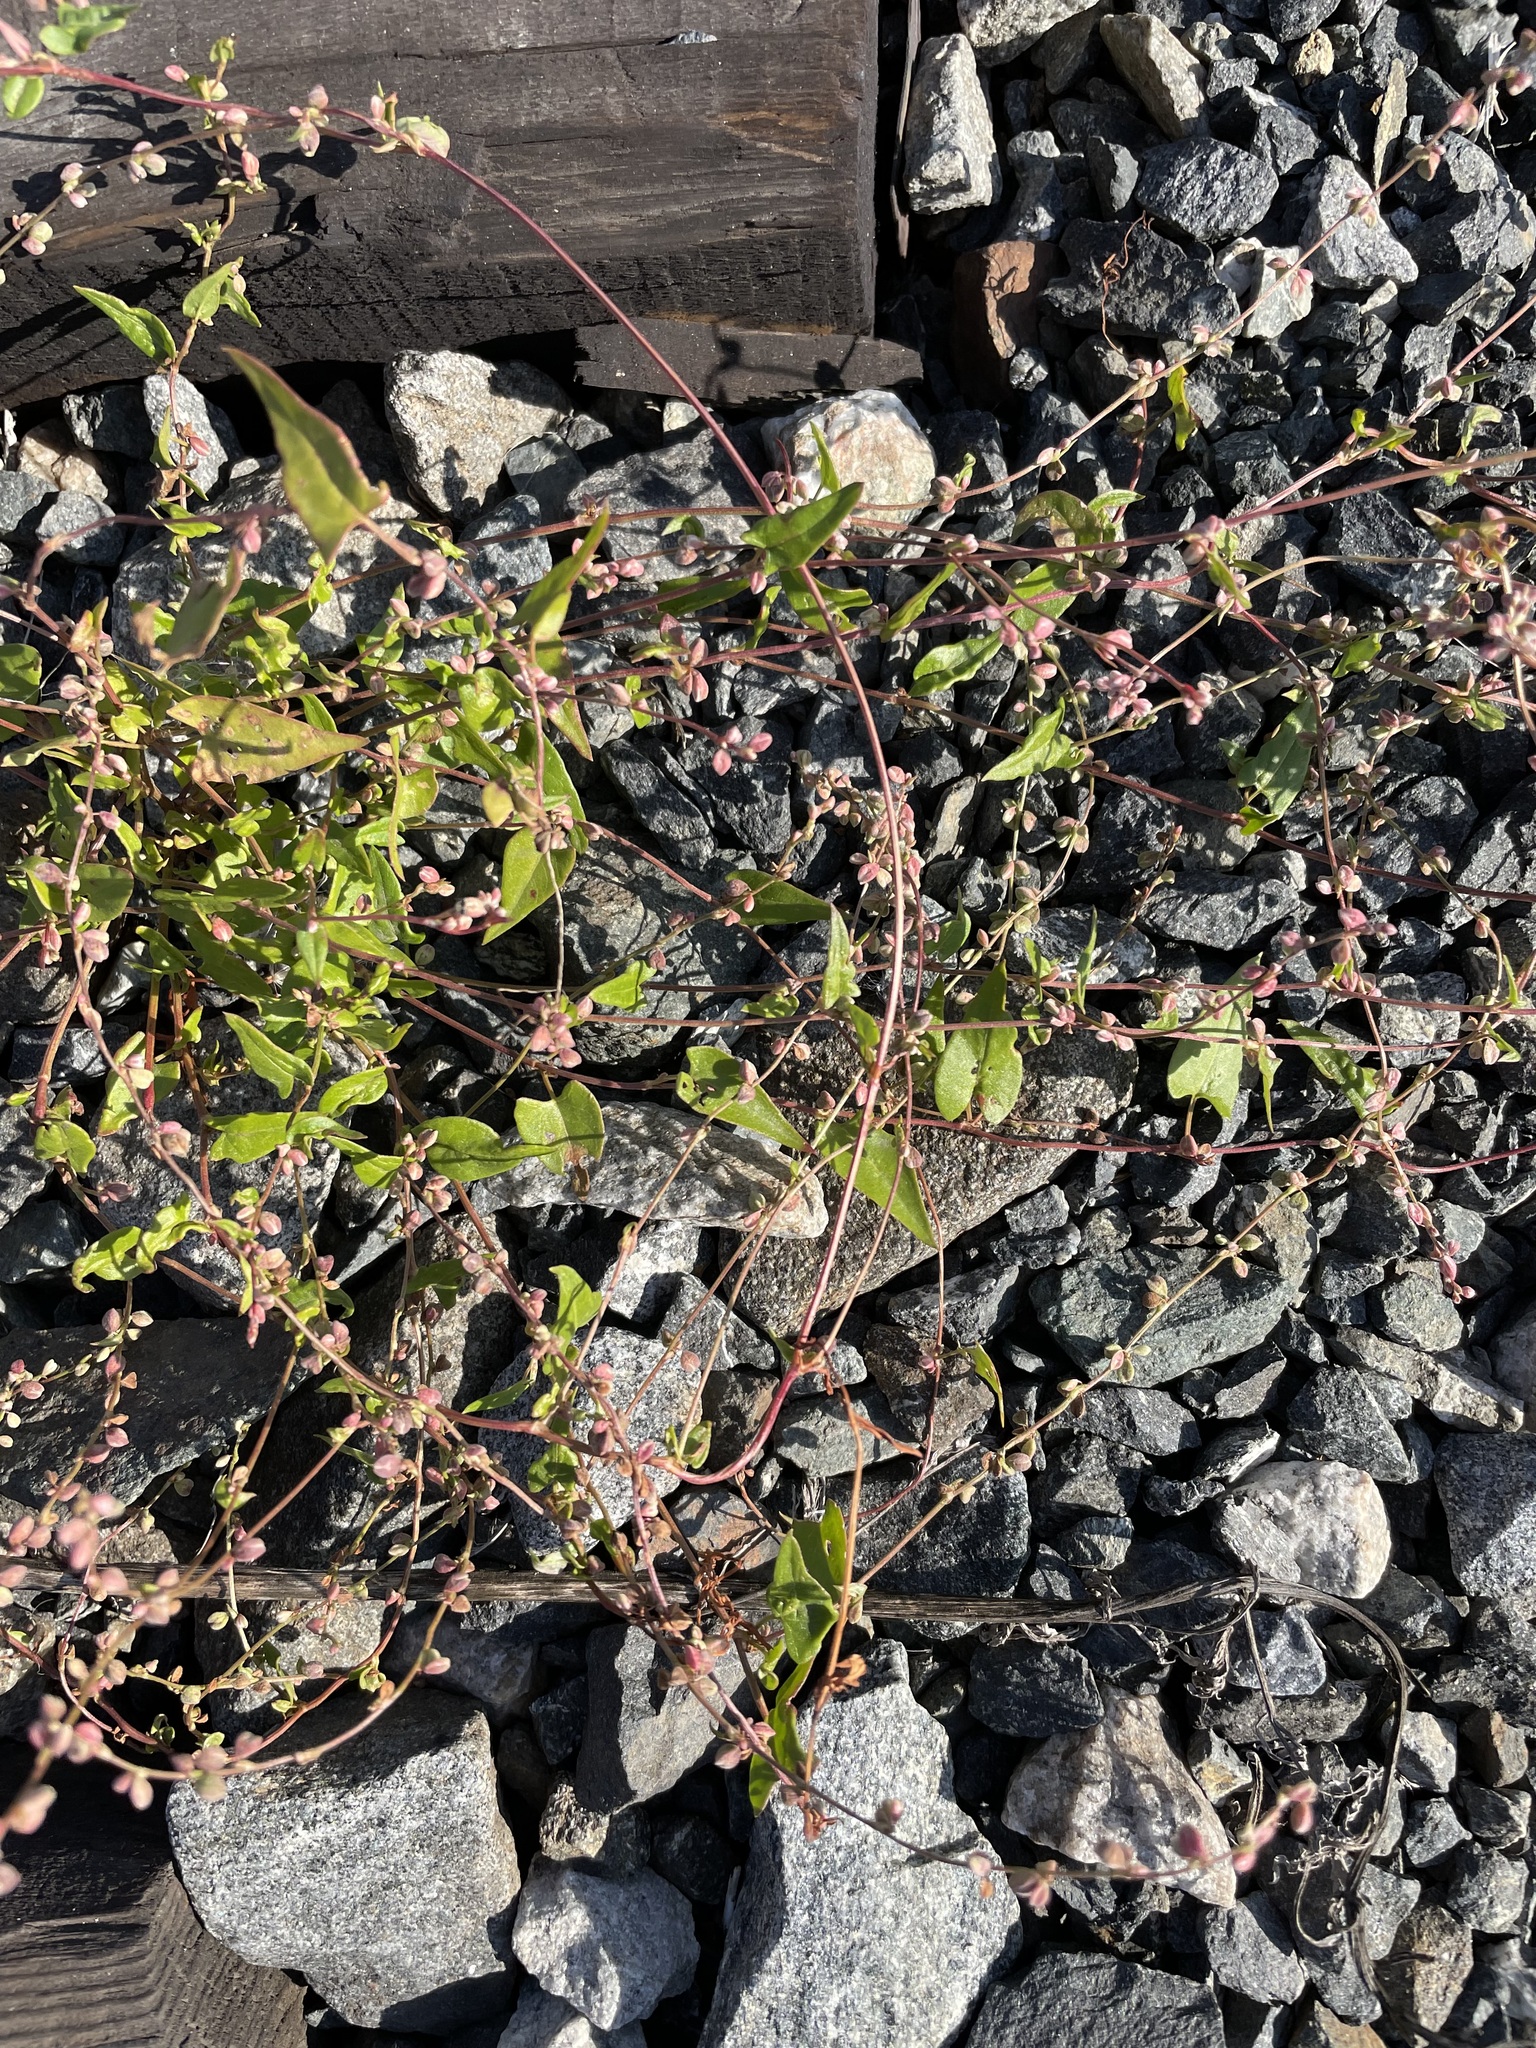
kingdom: Plantae
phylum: Tracheophyta
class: Magnoliopsida
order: Caryophyllales
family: Polygonaceae
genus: Fallopia
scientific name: Fallopia convolvulus
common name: Black bindweed
